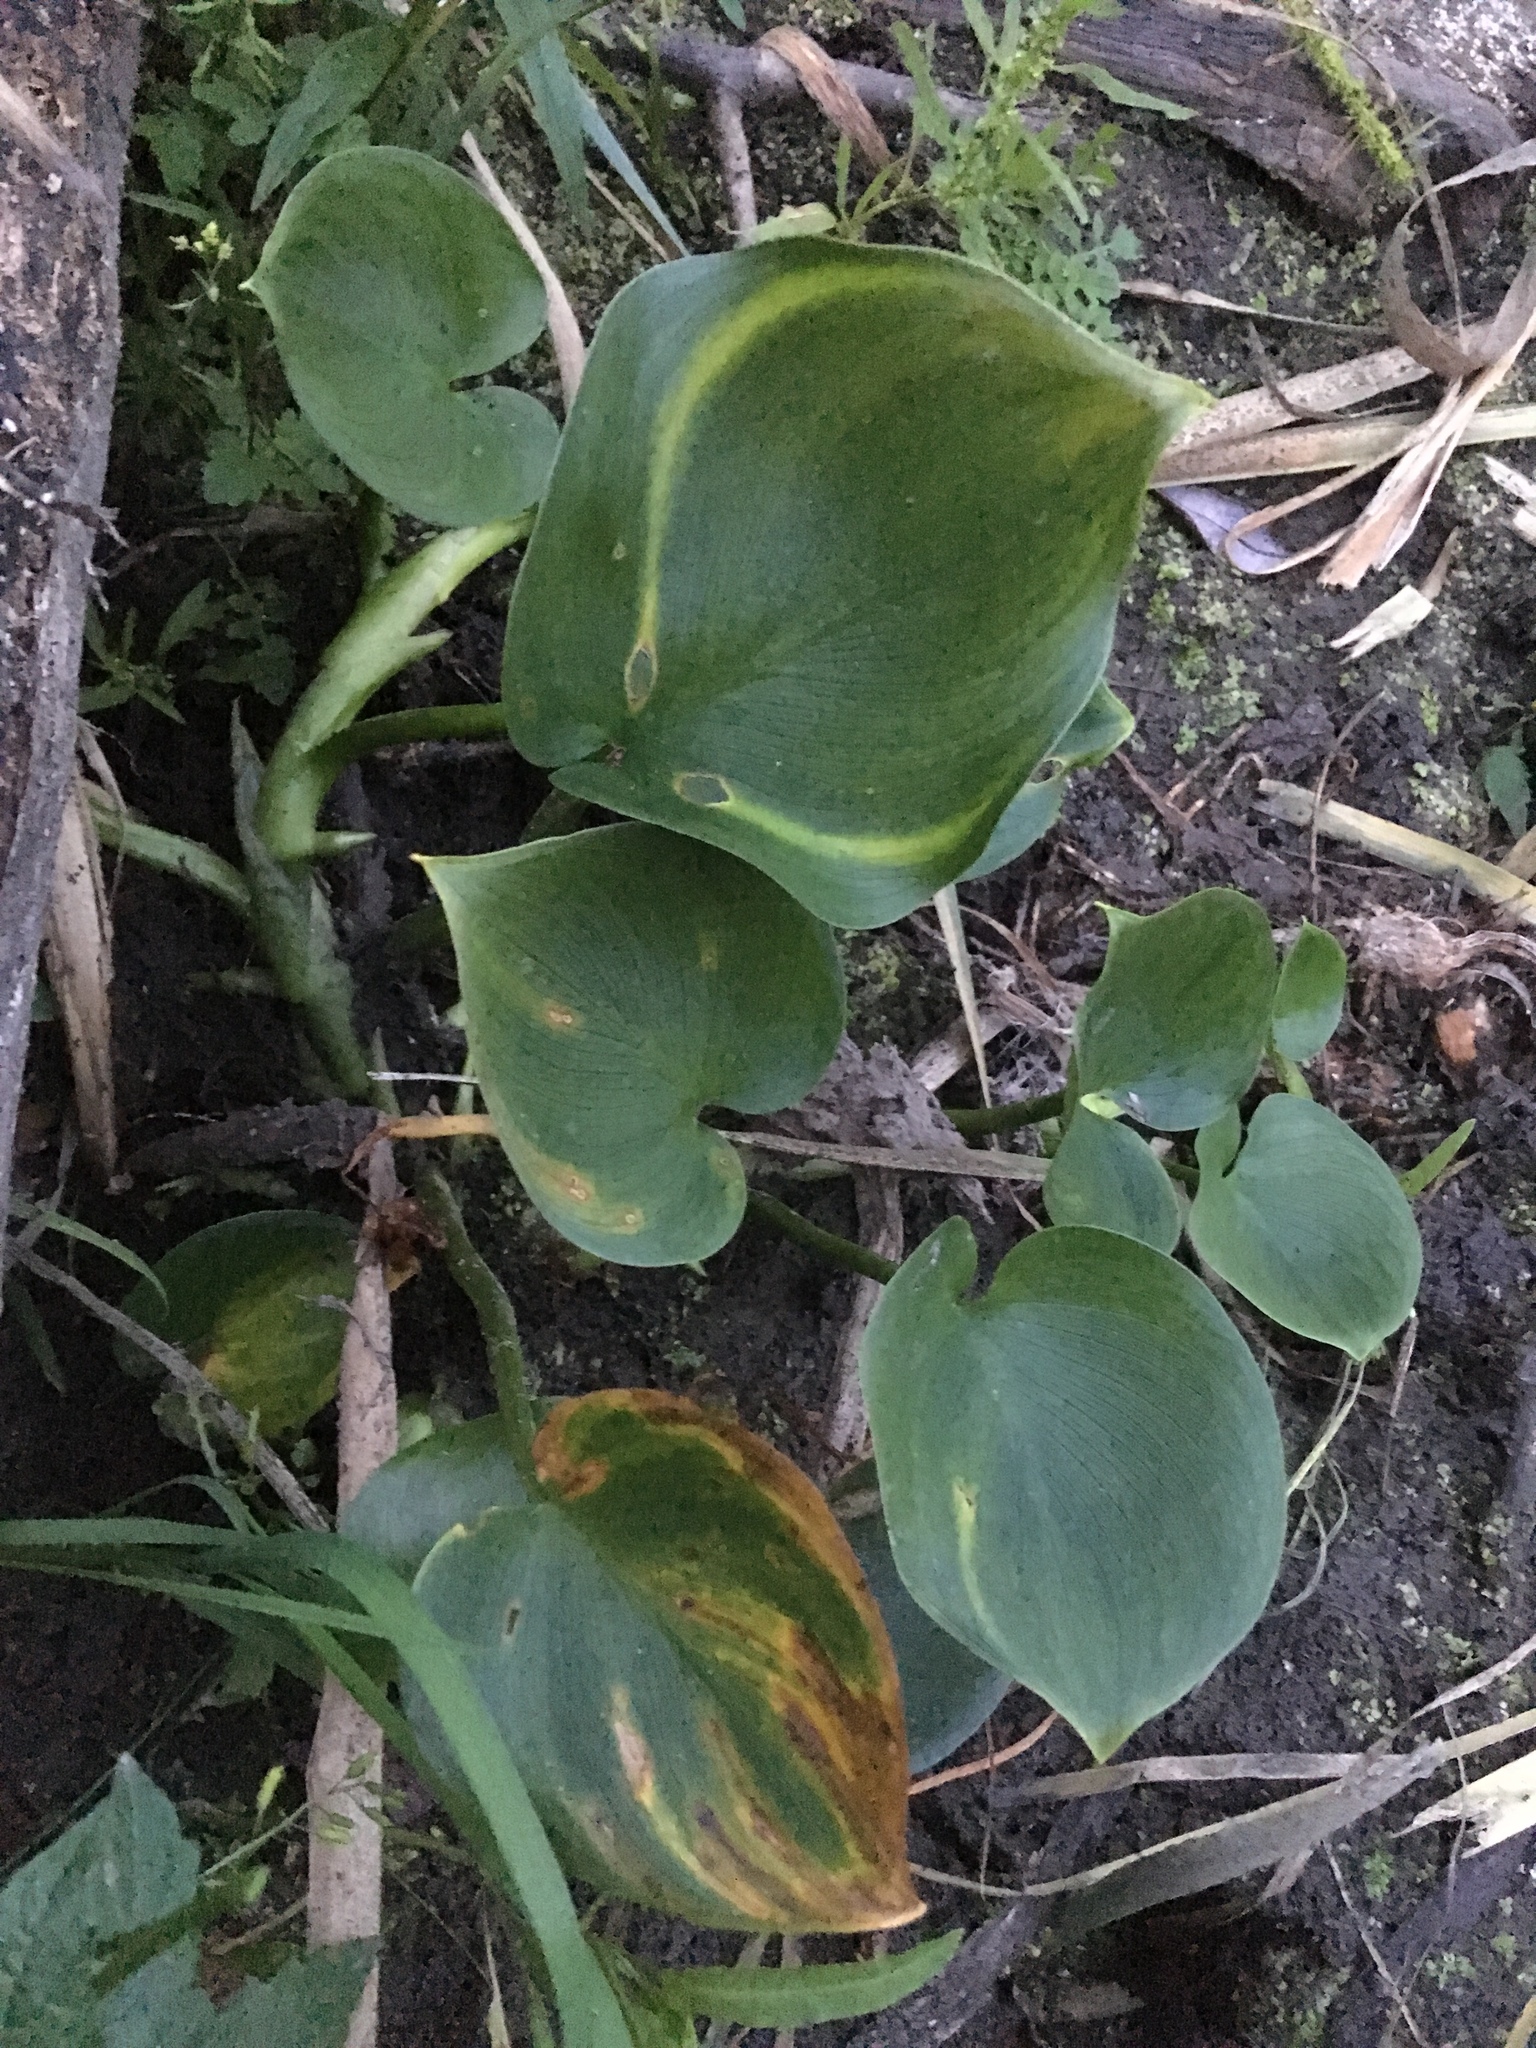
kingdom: Plantae
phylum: Tracheophyta
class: Liliopsida
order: Alismatales
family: Araceae
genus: Calla
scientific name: Calla palustris
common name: Bog arum
